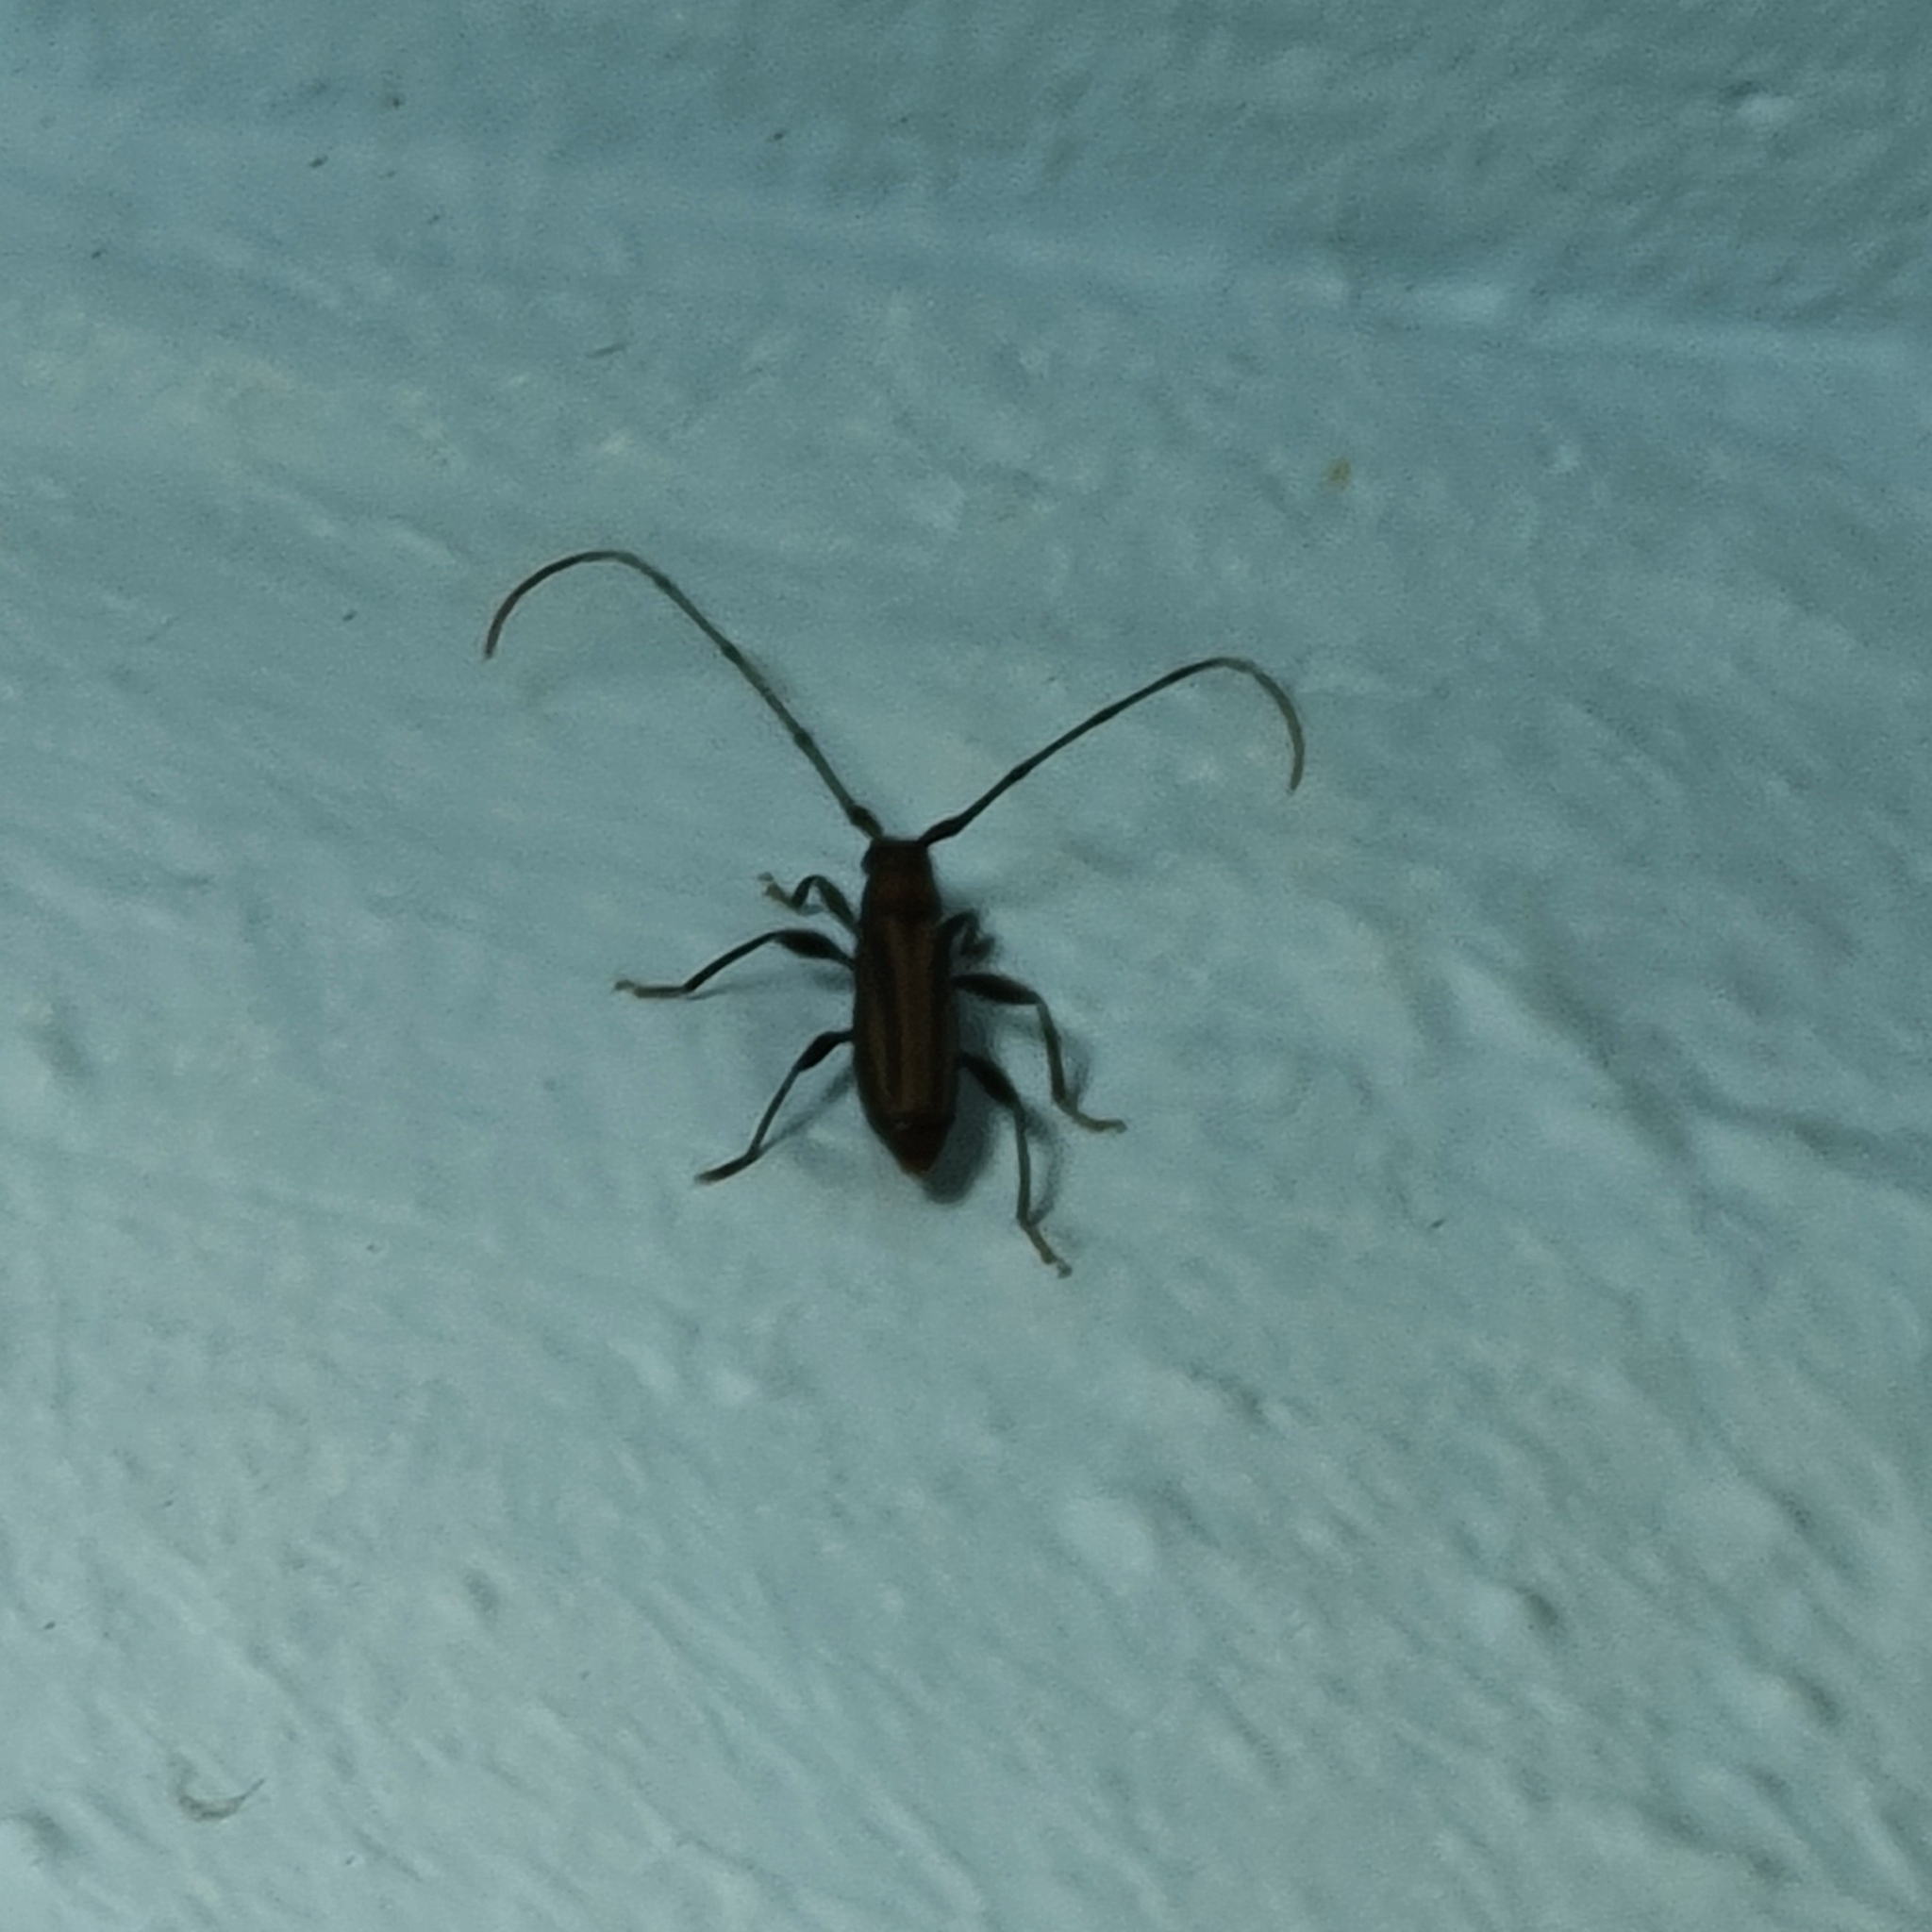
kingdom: Animalia
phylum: Arthropoda
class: Insecta
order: Coleoptera
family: Cerambycidae
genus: Xystrocera
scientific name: Xystrocera globosa
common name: Peach-tree longhorn
